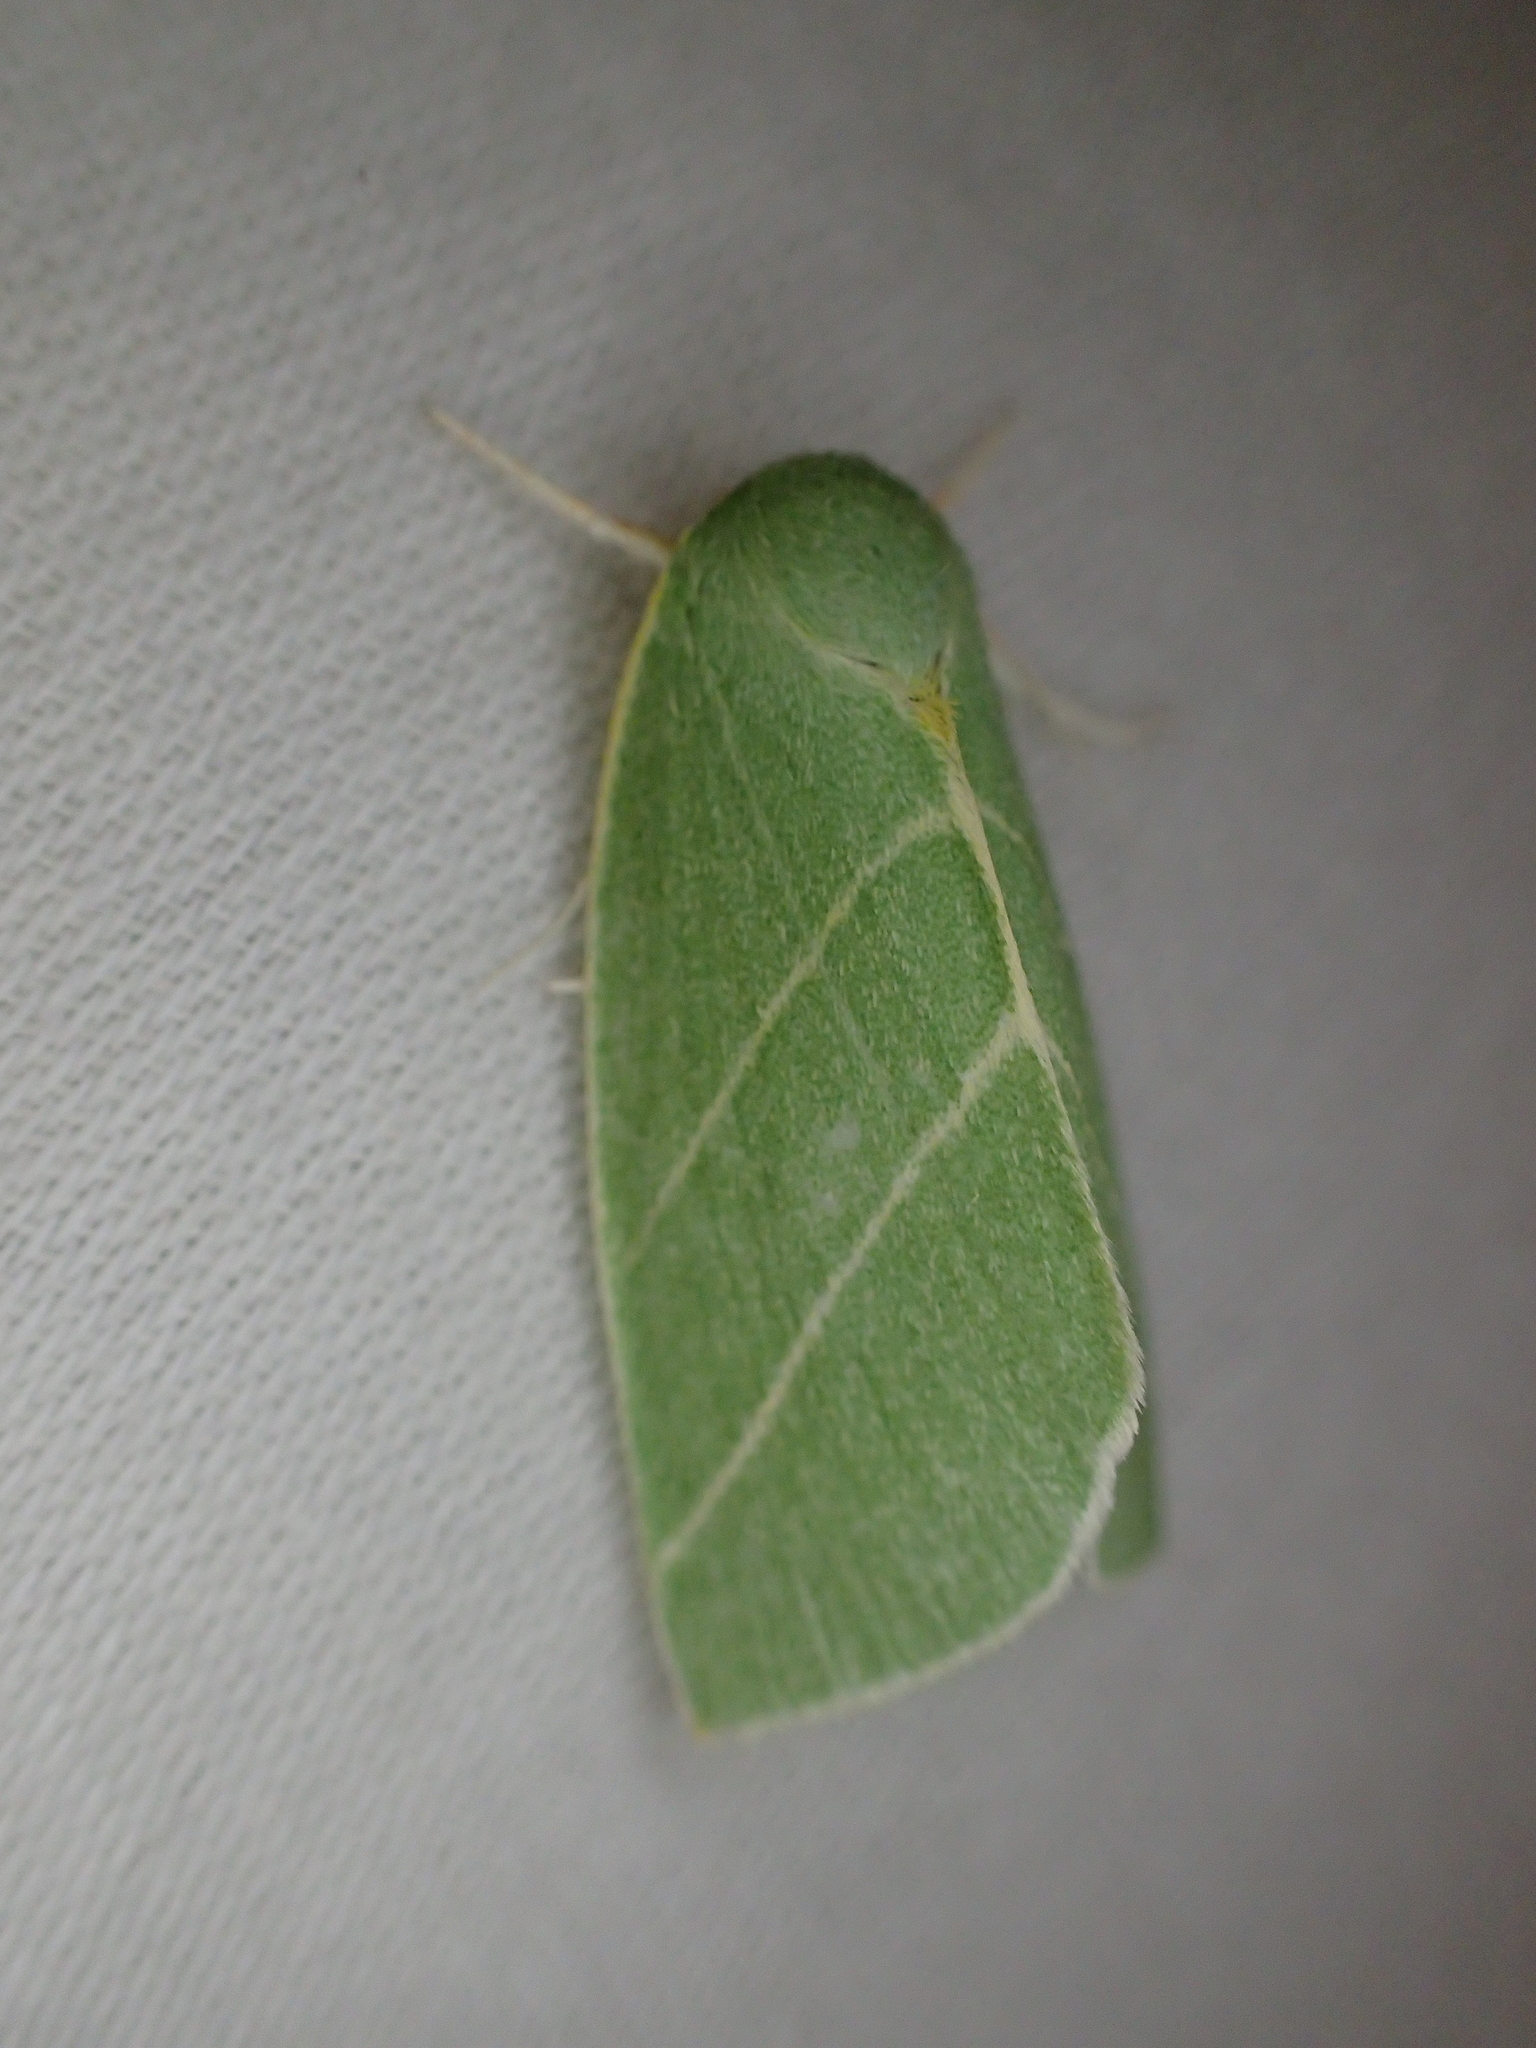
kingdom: Animalia
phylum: Arthropoda
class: Insecta
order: Lepidoptera
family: Nolidae
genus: Bena
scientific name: Bena bicolorana
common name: Scarce silver-lines
